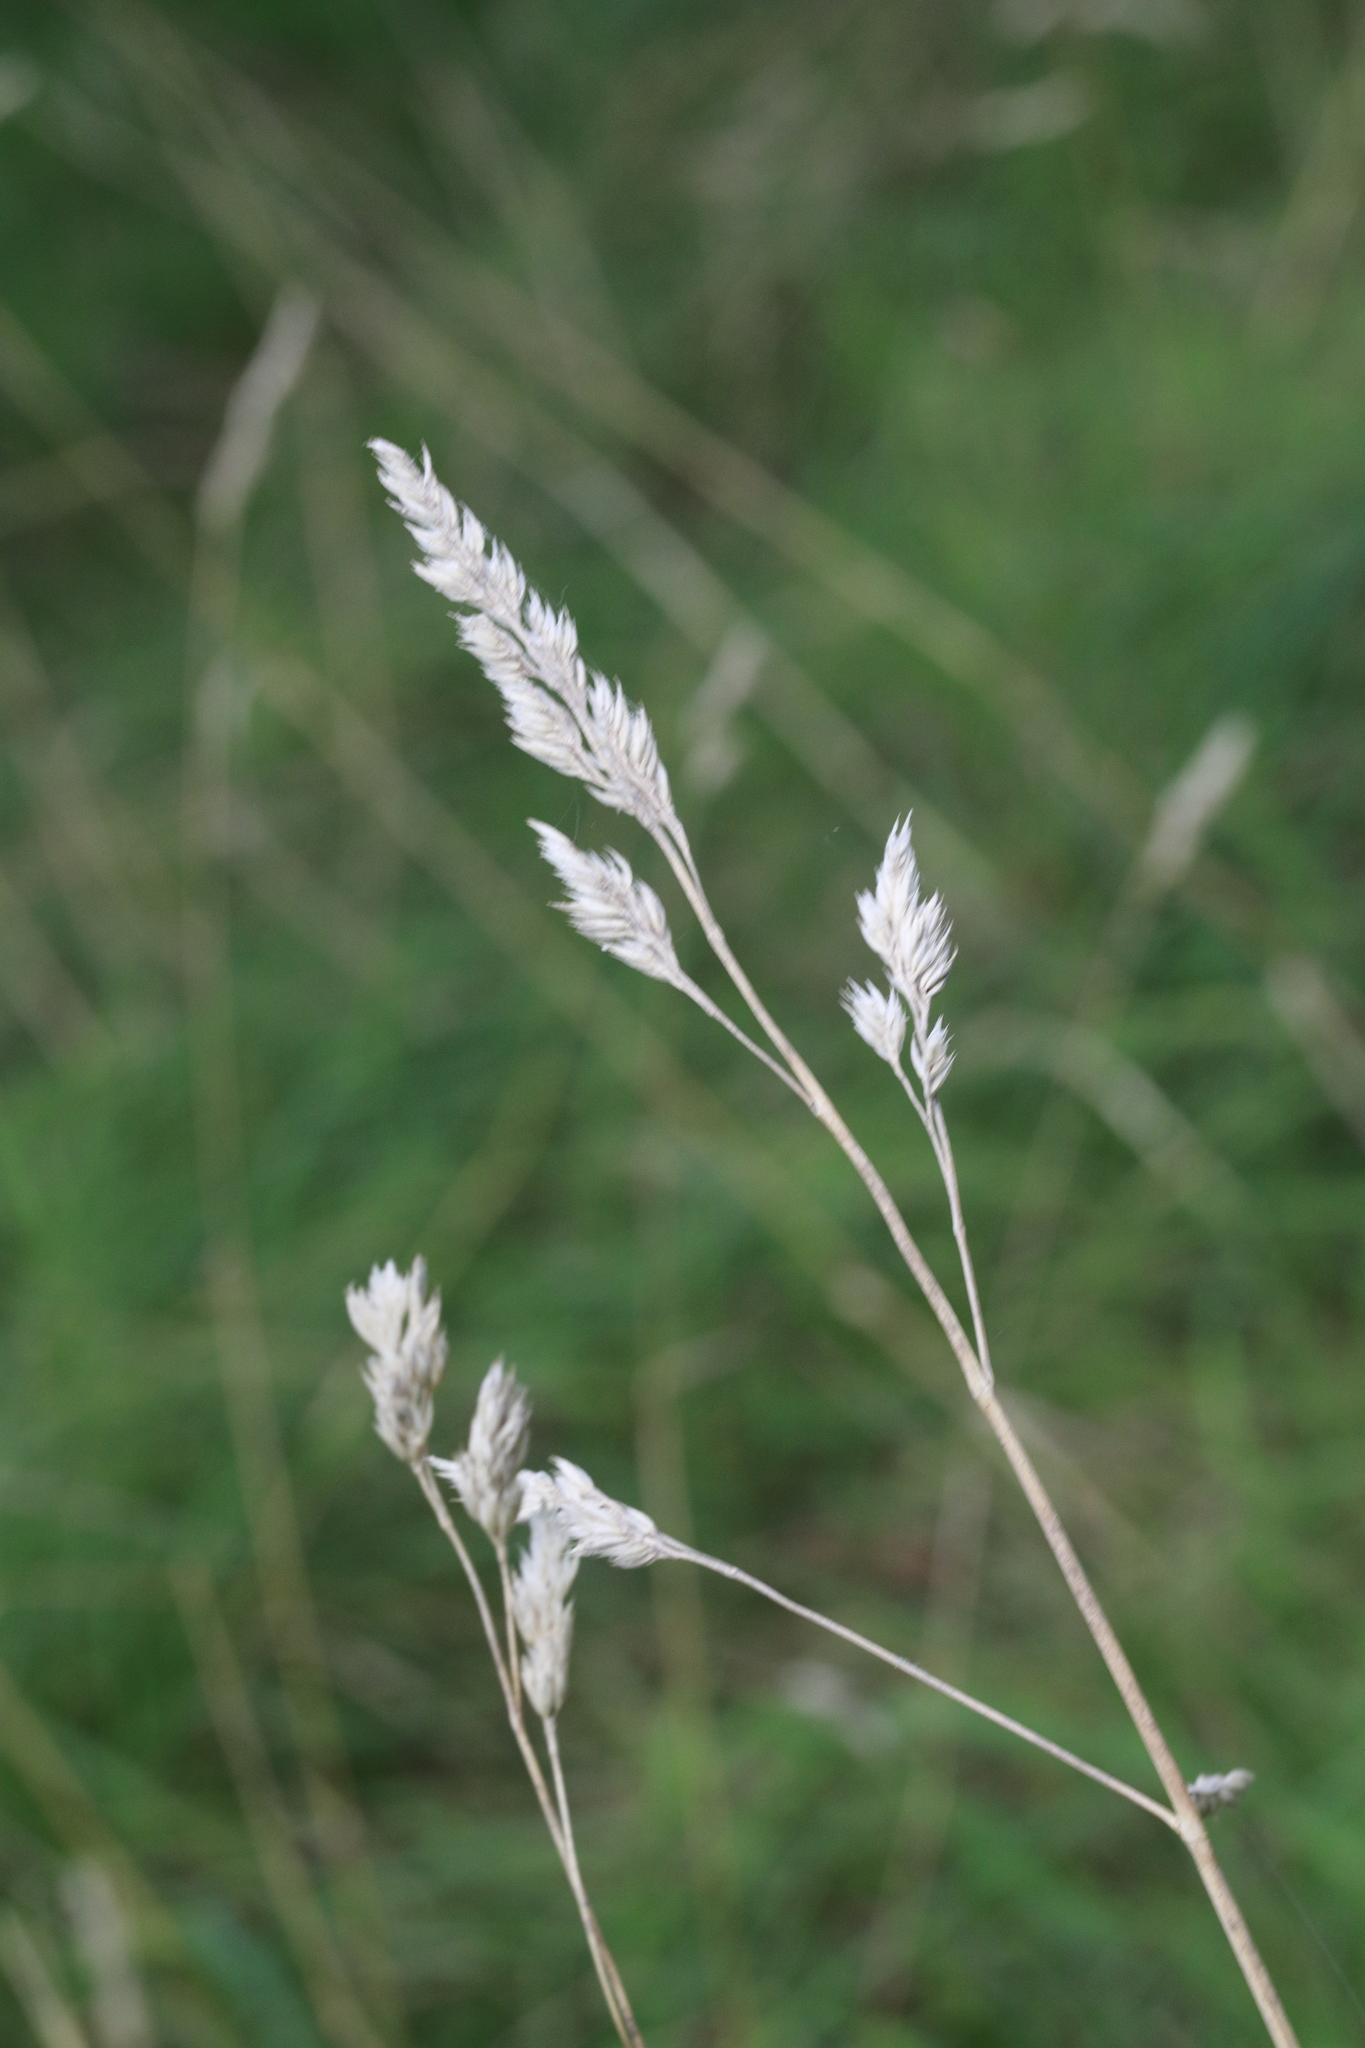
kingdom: Plantae
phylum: Tracheophyta
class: Liliopsida
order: Poales
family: Poaceae
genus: Dactylis
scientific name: Dactylis glomerata
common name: Orchardgrass
